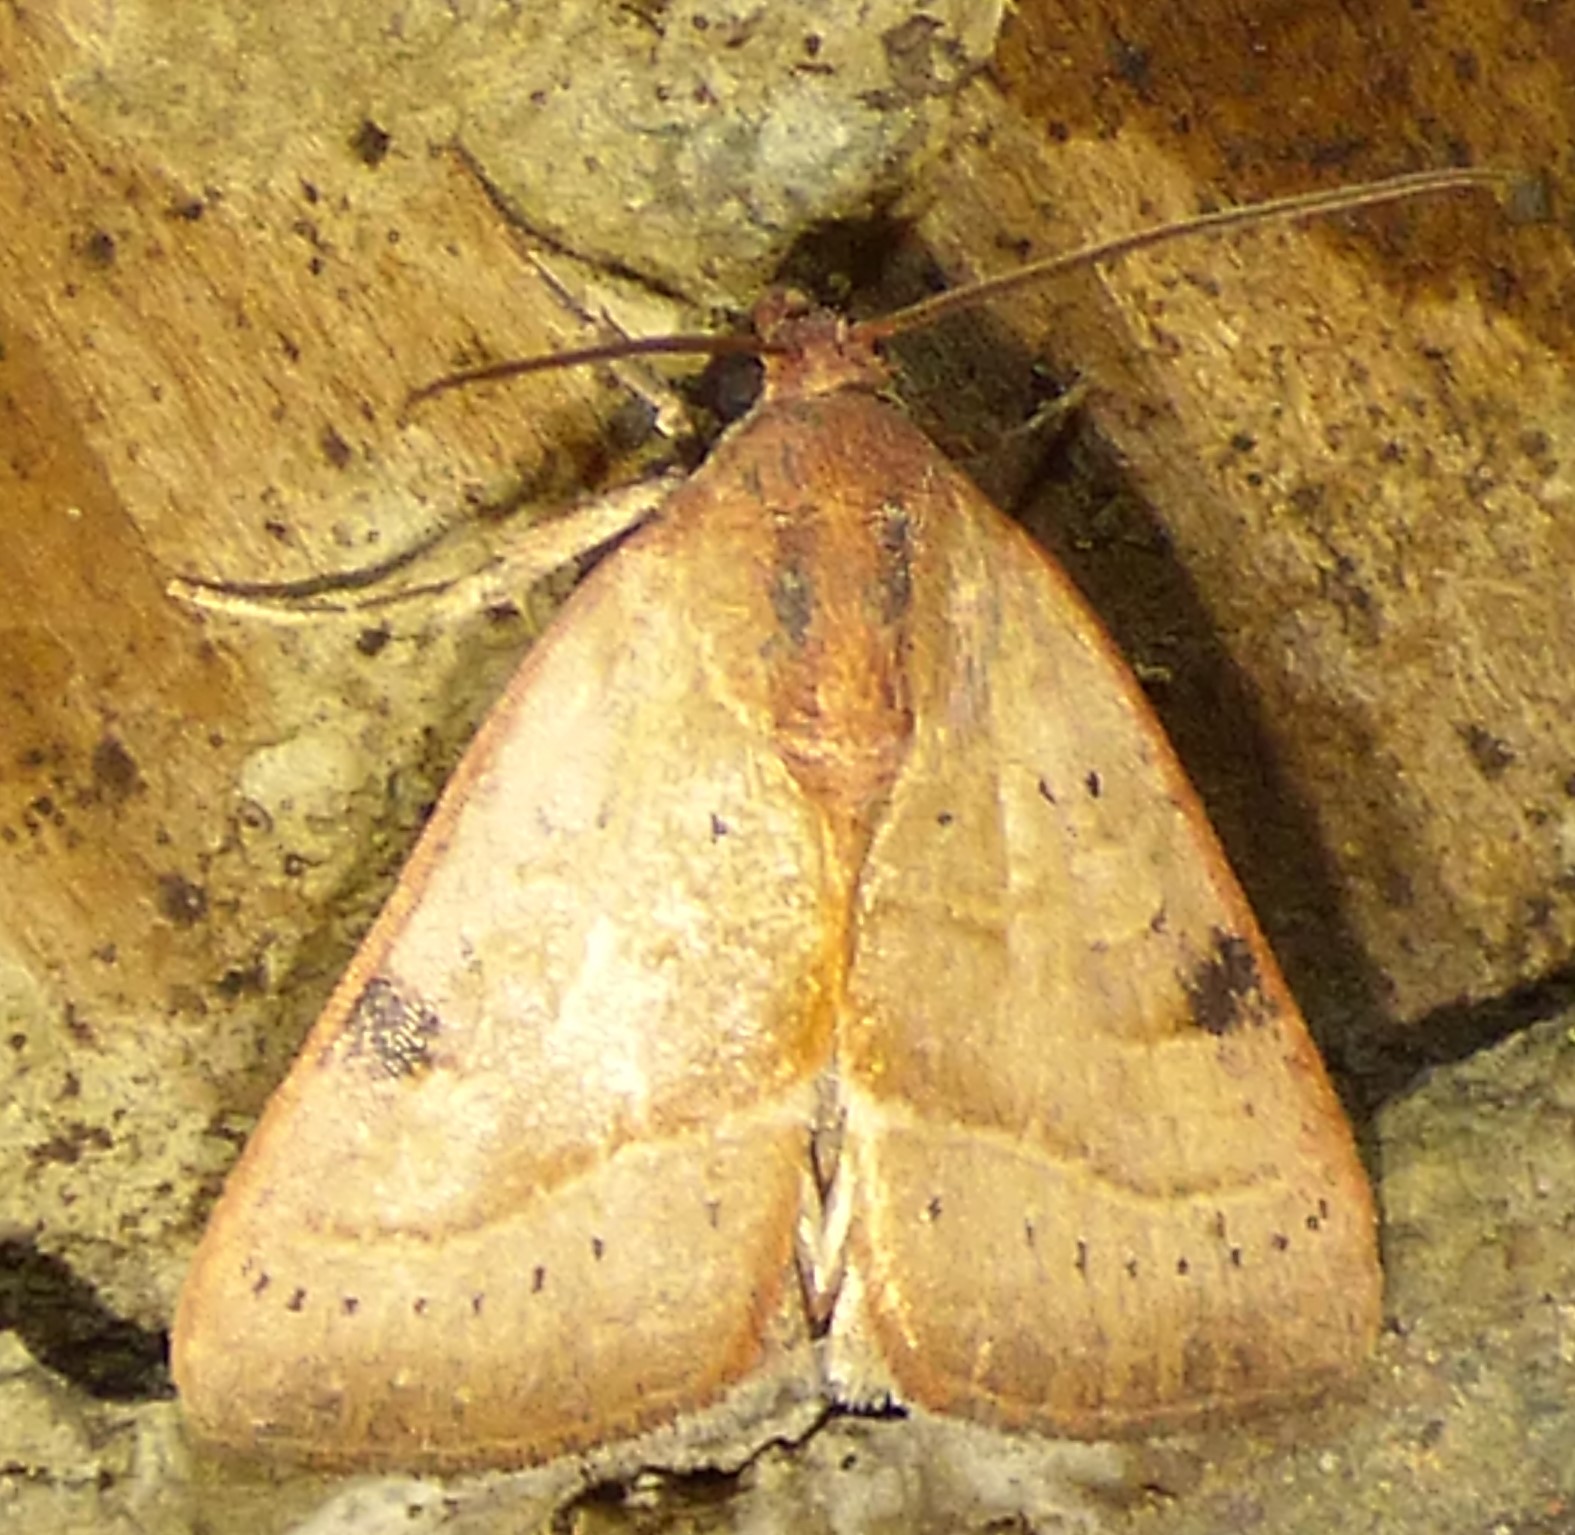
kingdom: Animalia
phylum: Arthropoda
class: Insecta
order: Lepidoptera
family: Noctuidae
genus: Galgula
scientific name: Galgula partita
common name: Wedgeling
